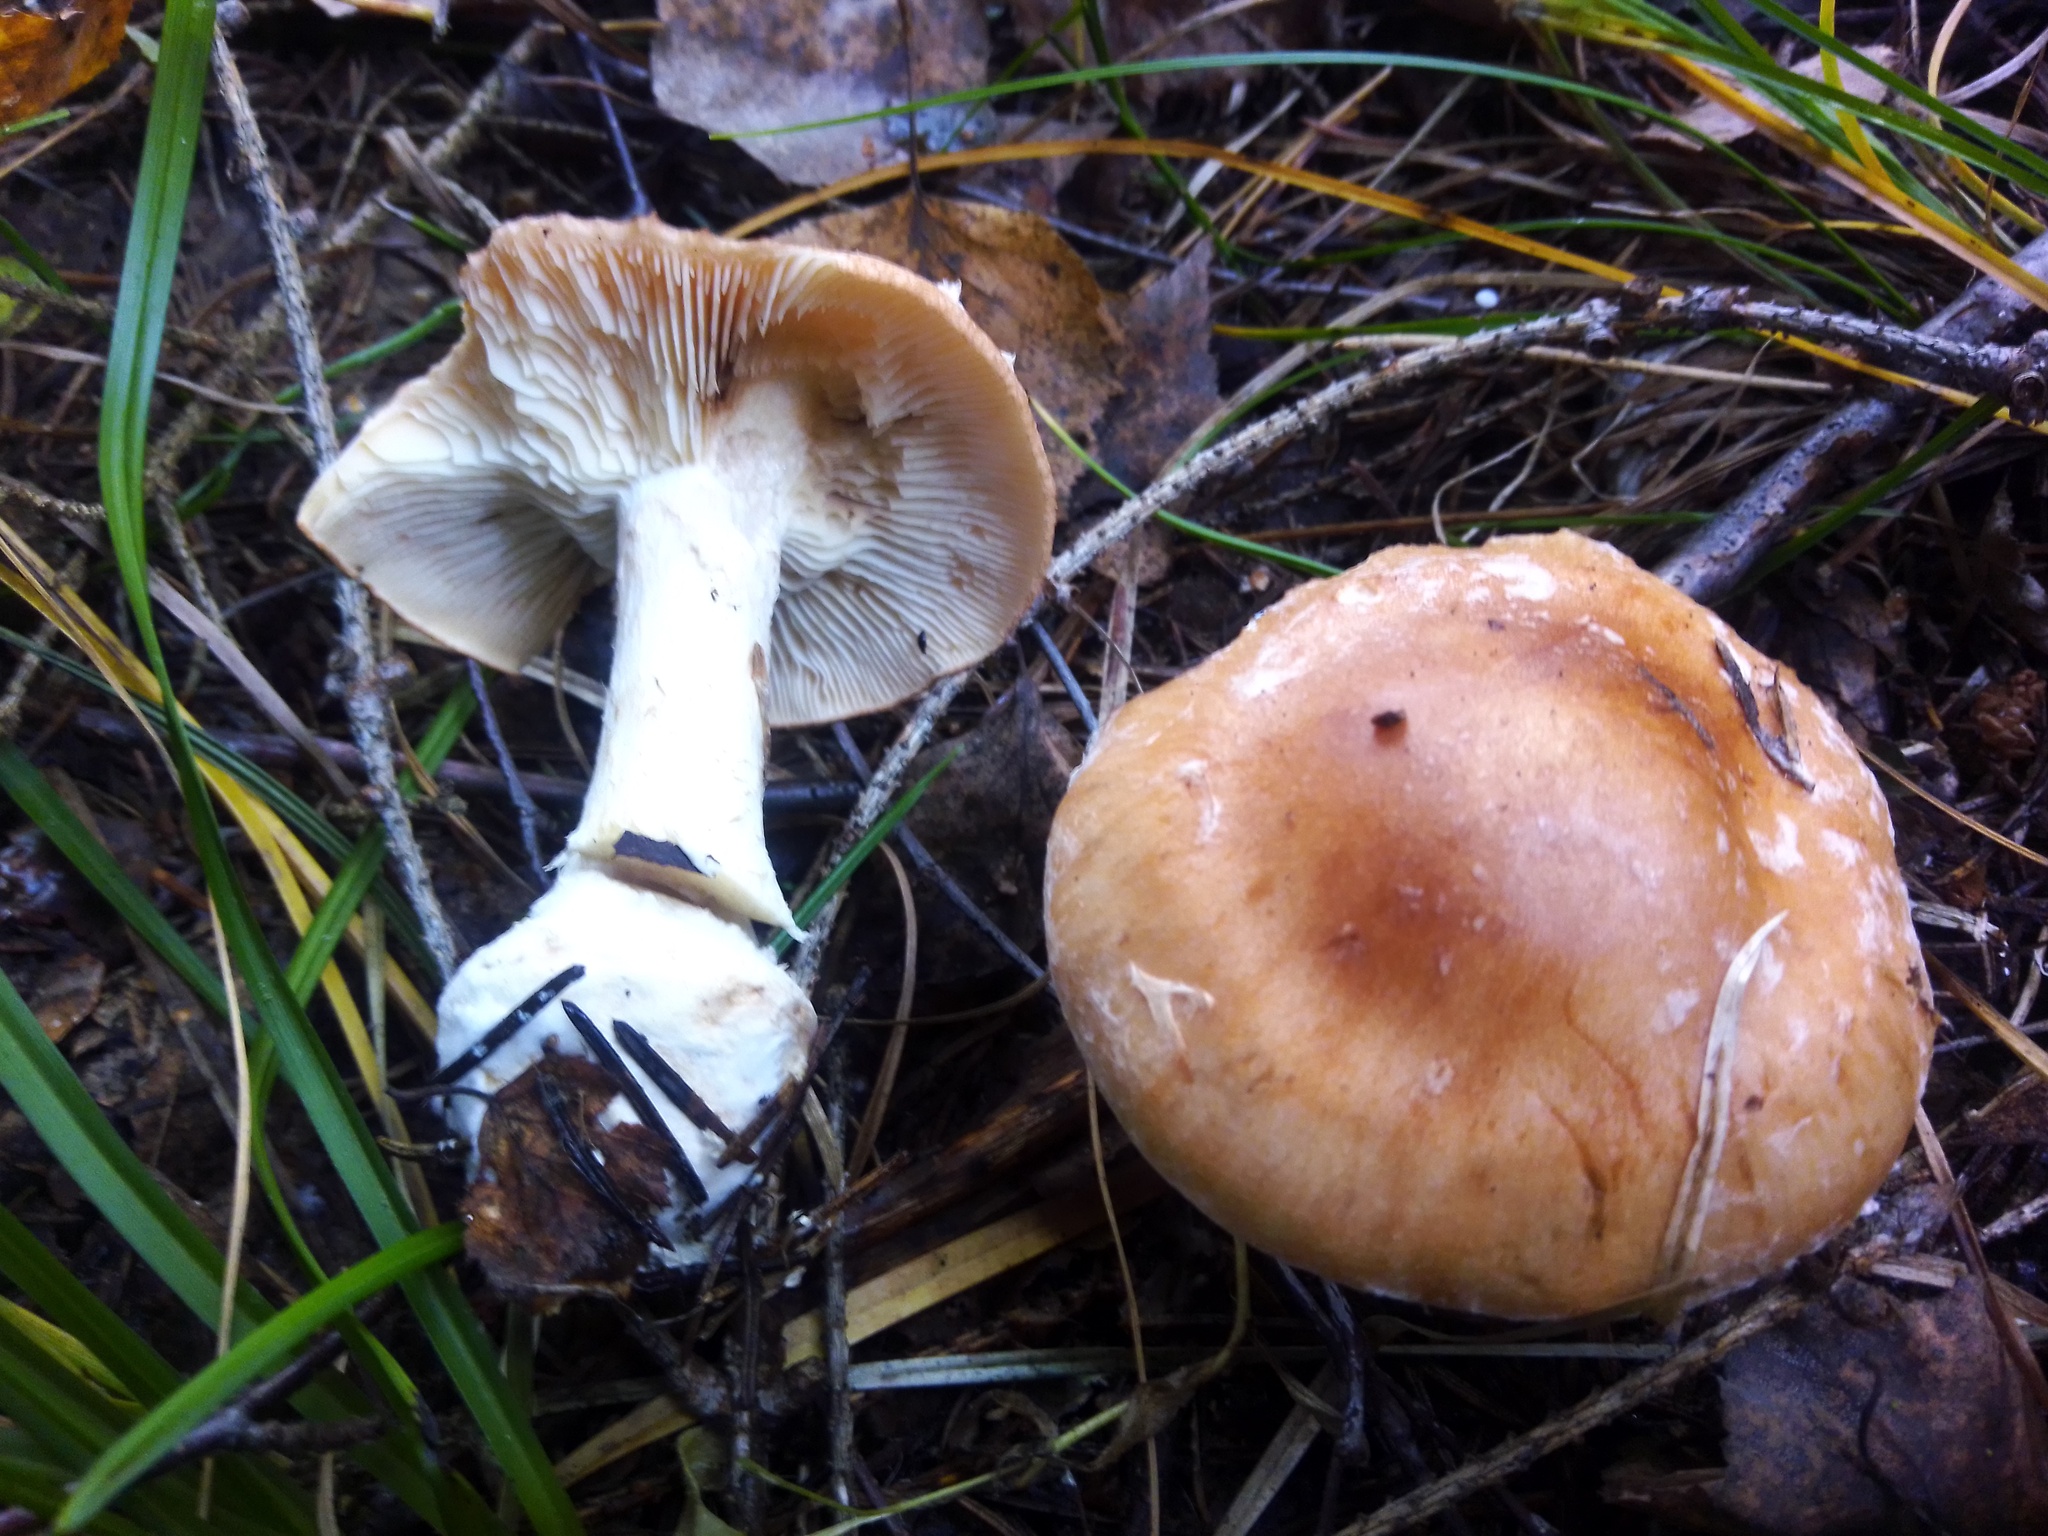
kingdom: Fungi
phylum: Basidiomycota
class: Agaricomycetes
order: Agaricales
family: Tricholomataceae
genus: Leucocortinarius
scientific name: Leucocortinarius bulbiger
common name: White webcap
